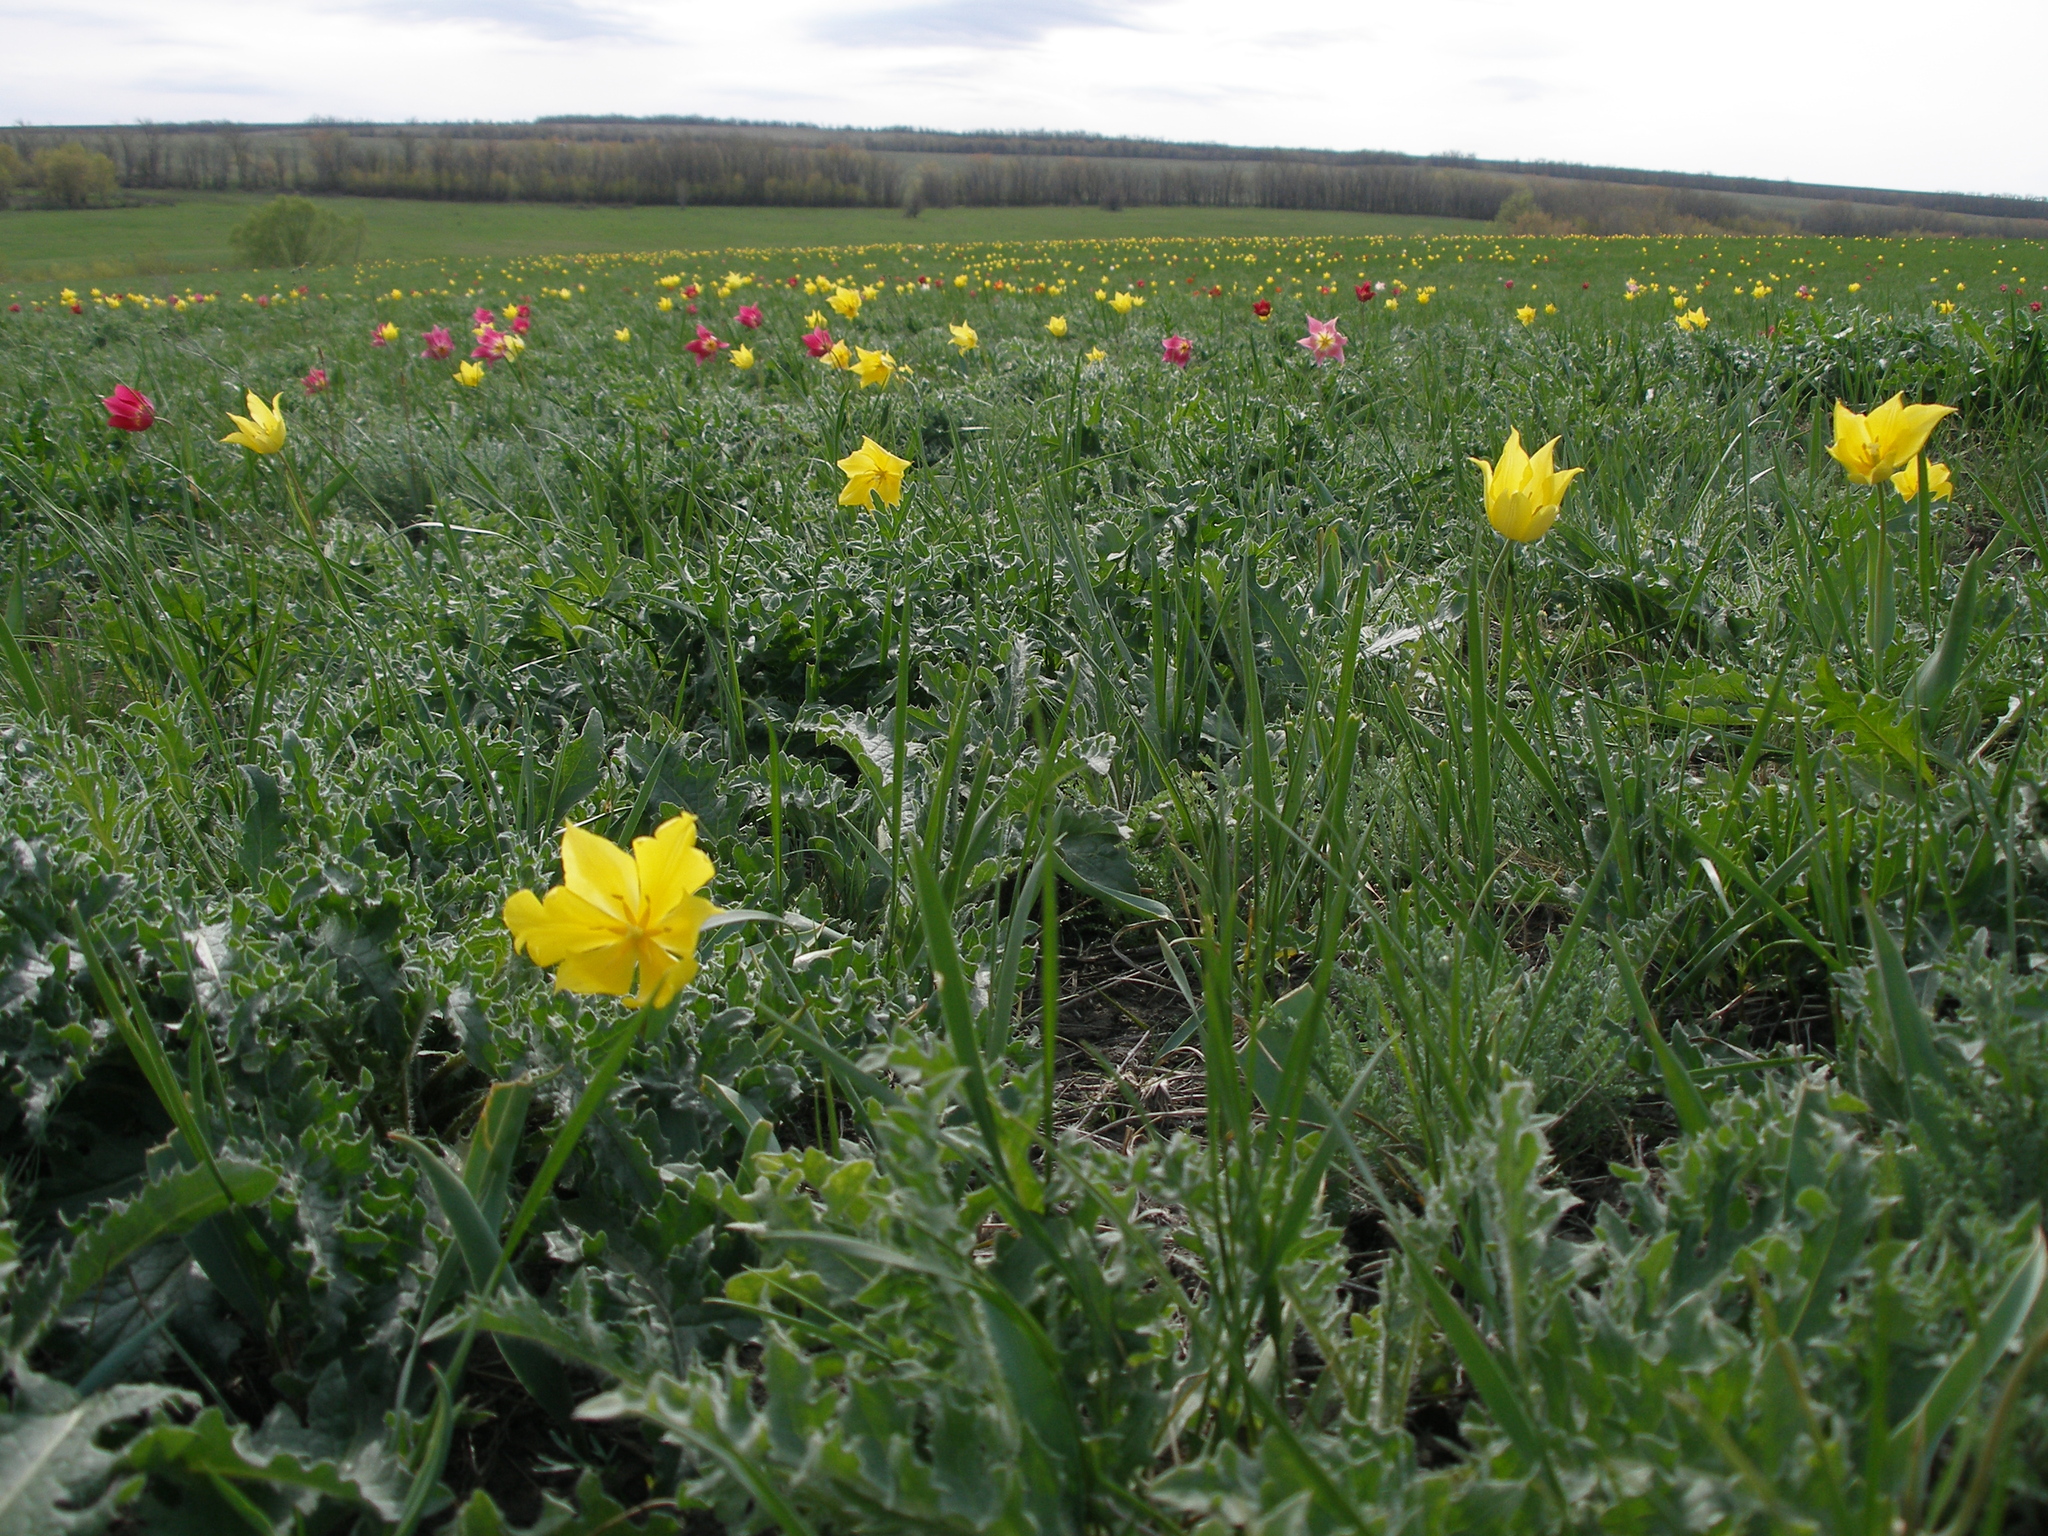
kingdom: Plantae
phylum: Tracheophyta
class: Liliopsida
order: Liliales
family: Liliaceae
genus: Tulipa
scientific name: Tulipa suaveolens
